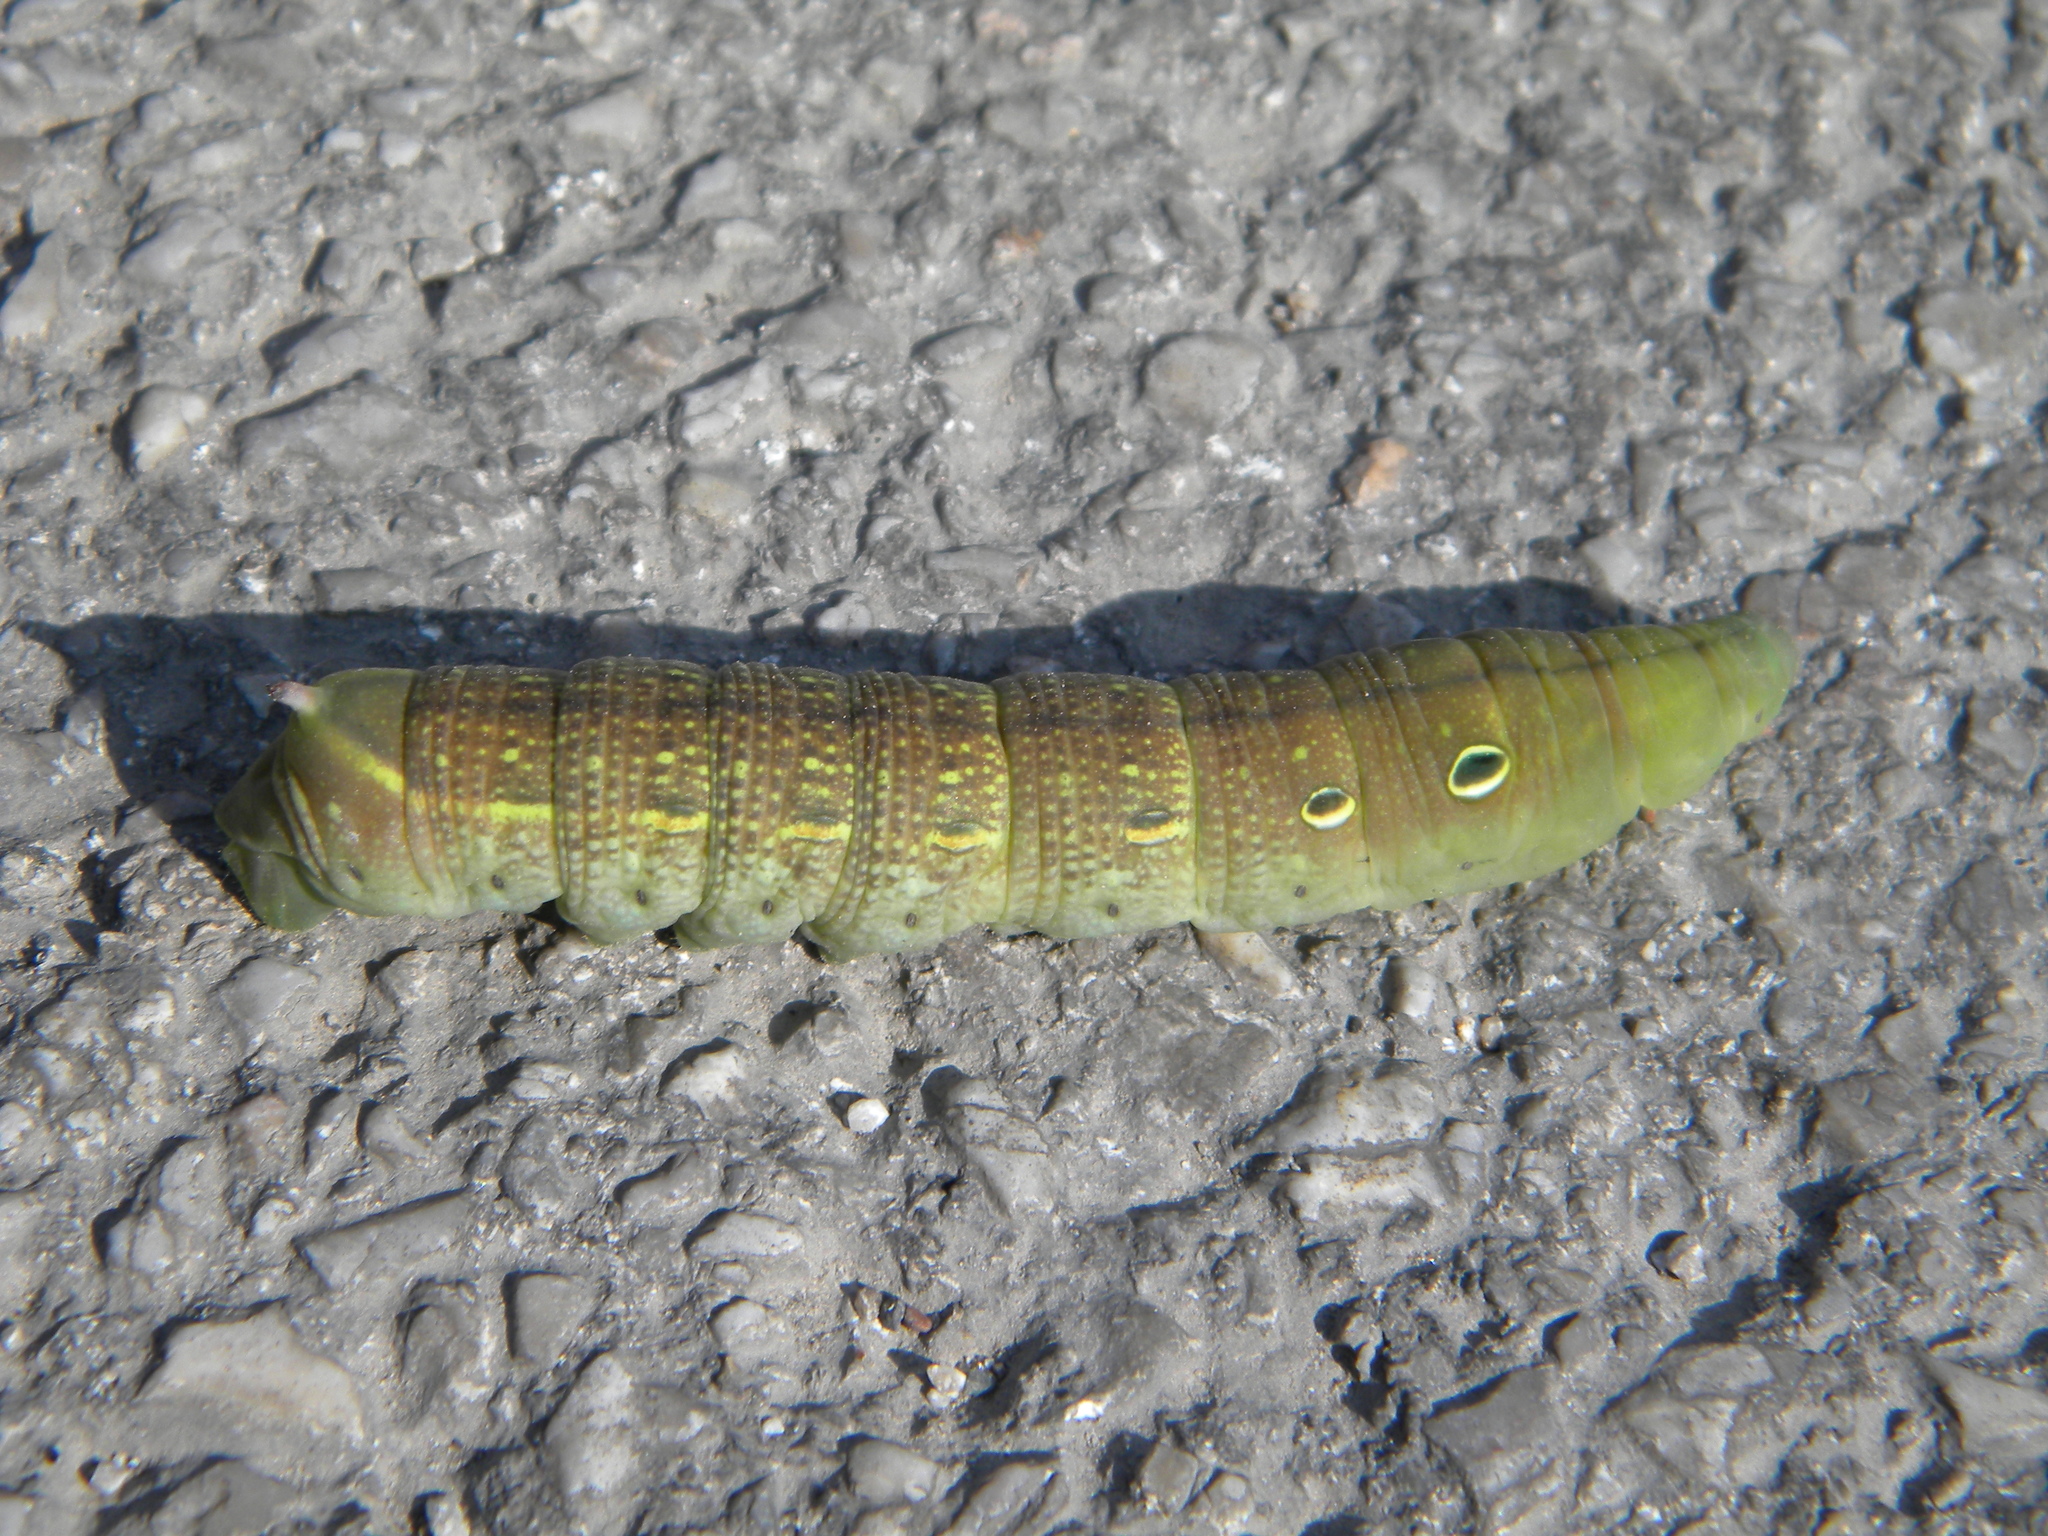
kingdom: Animalia
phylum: Arthropoda
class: Insecta
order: Lepidoptera
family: Sphingidae
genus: Theretra
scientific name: Theretra alecto
